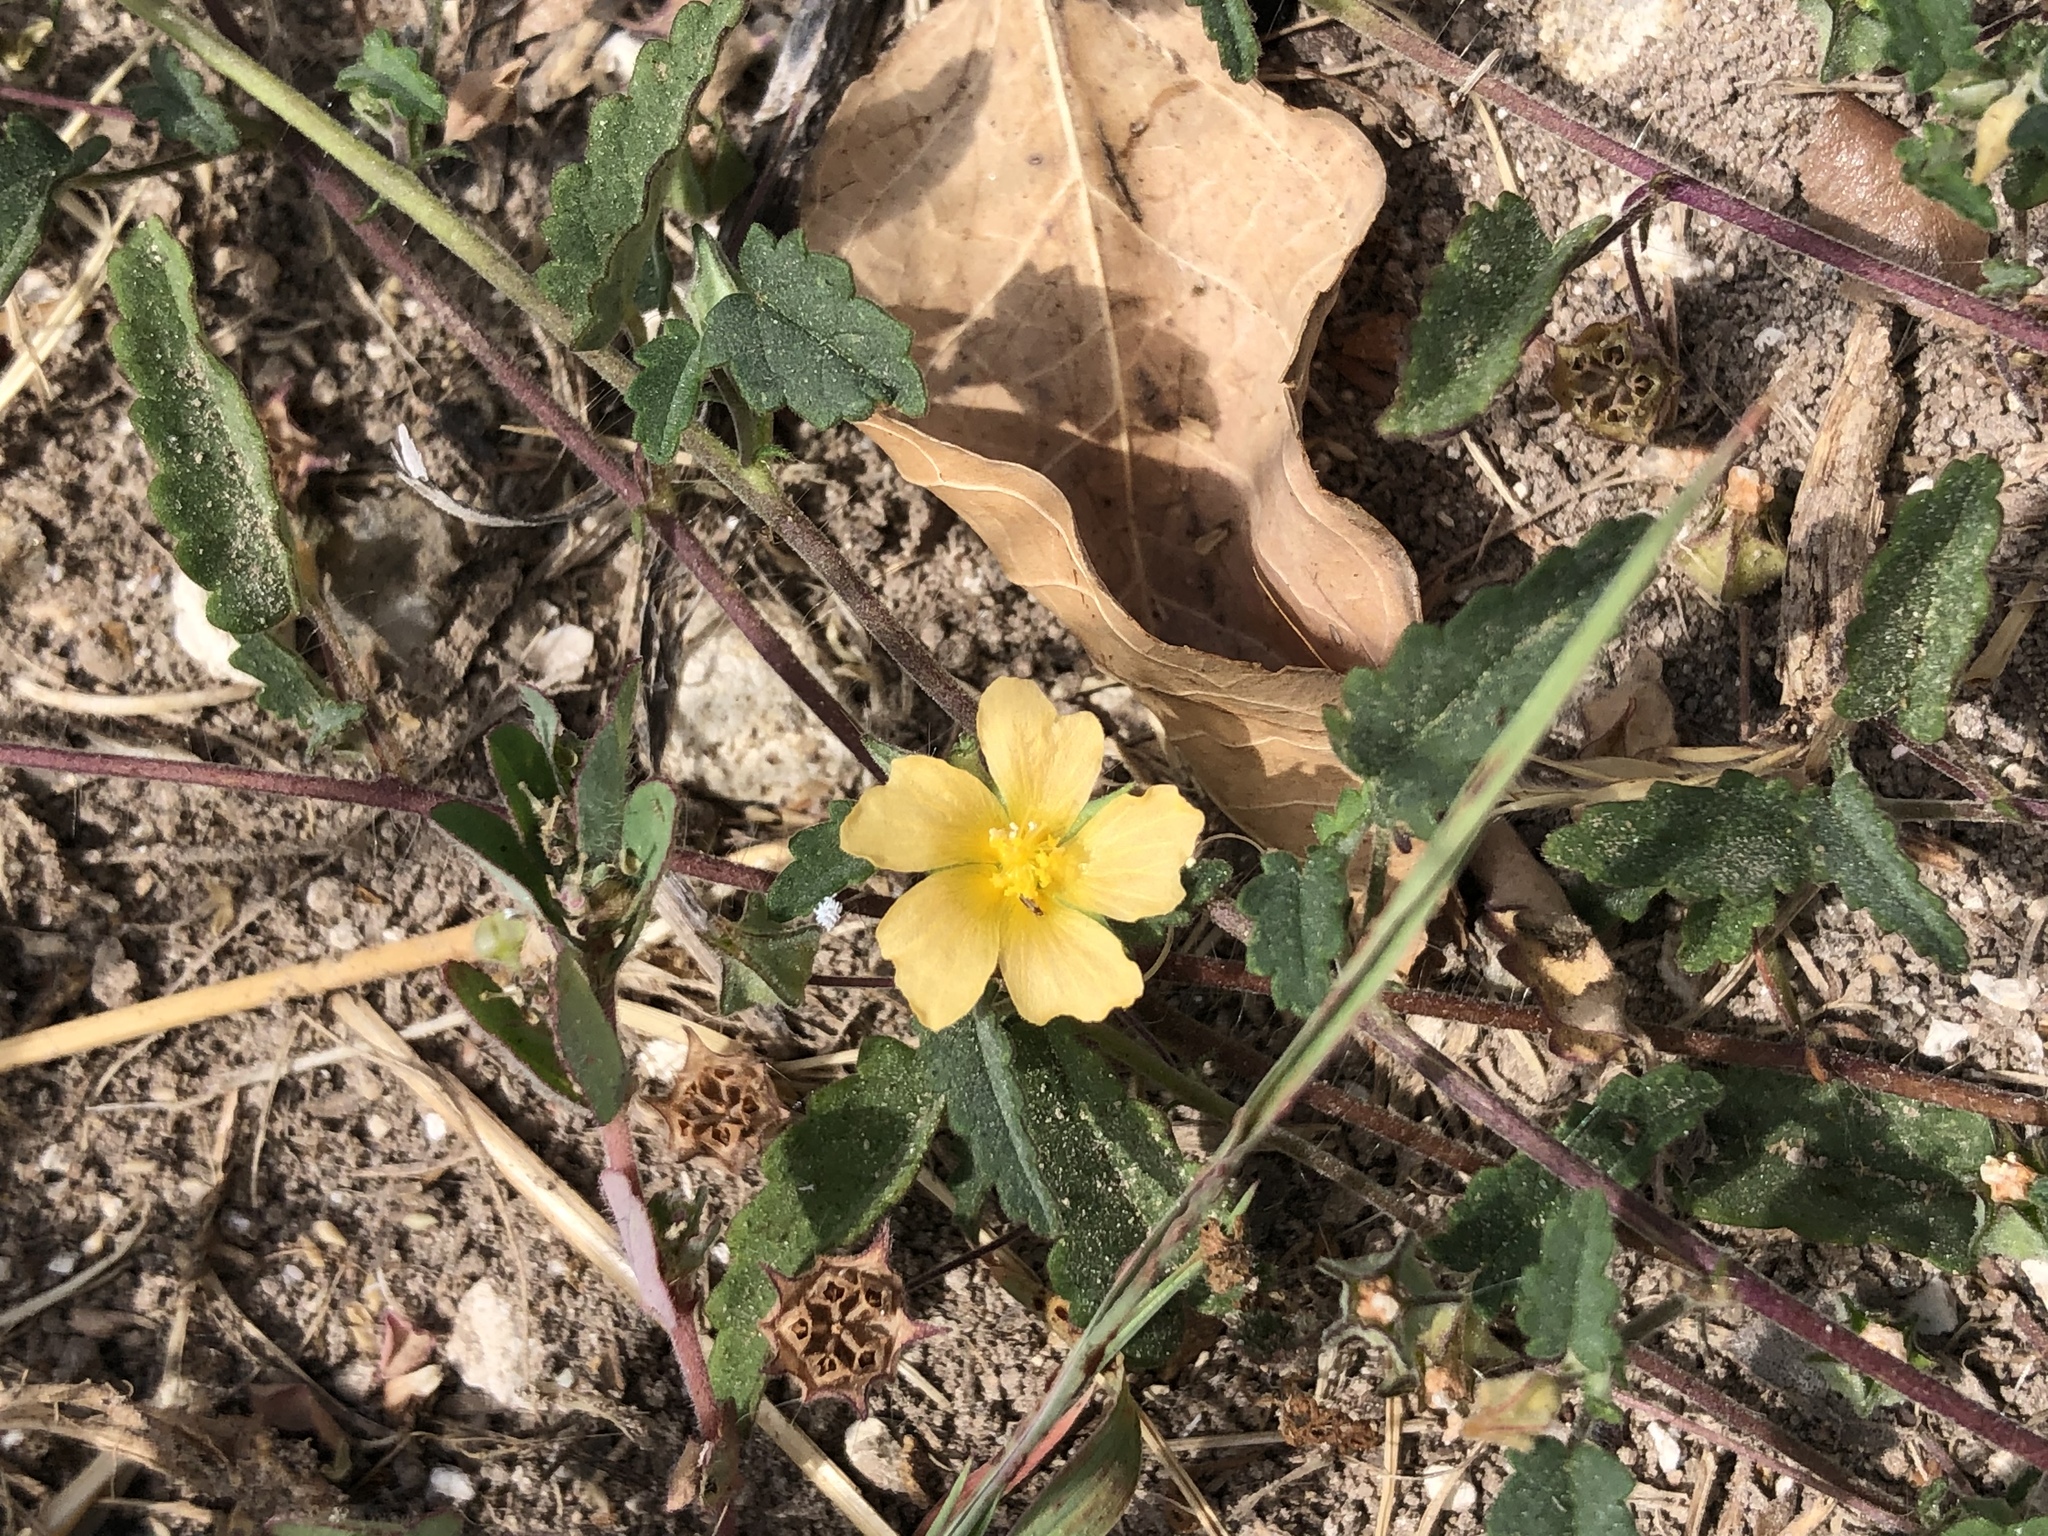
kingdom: Plantae
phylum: Tracheophyta
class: Magnoliopsida
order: Malvales
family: Malvaceae
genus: Sida
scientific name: Sida abutilifolia
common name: Spreading fanpetals
